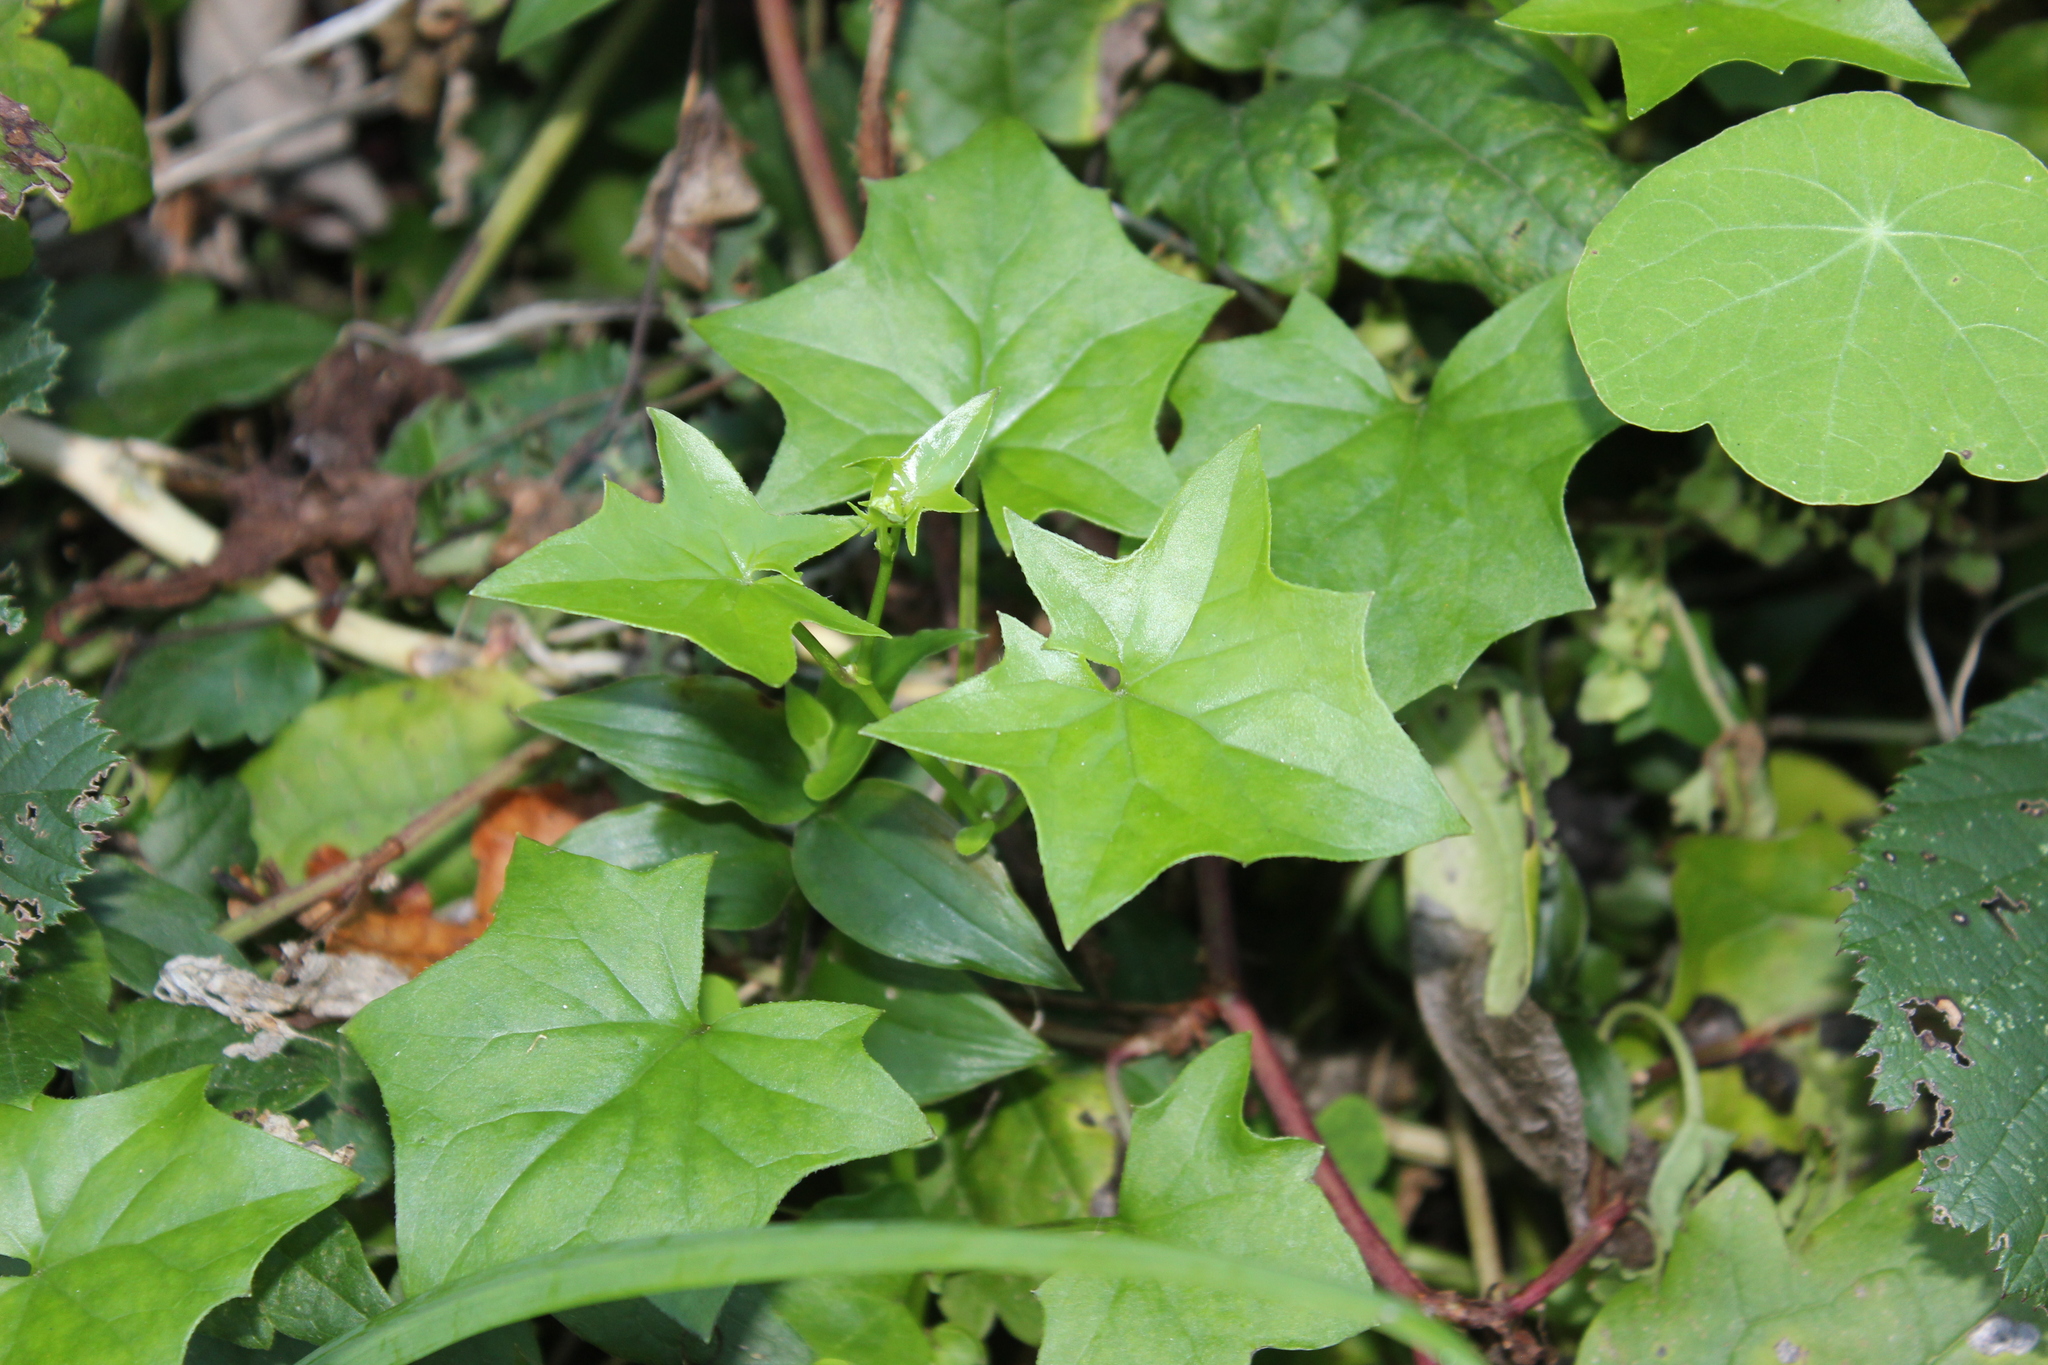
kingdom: Plantae
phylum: Tracheophyta
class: Magnoliopsida
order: Asterales
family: Asteraceae
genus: Delairea
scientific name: Delairea odorata
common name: Cape-ivy
